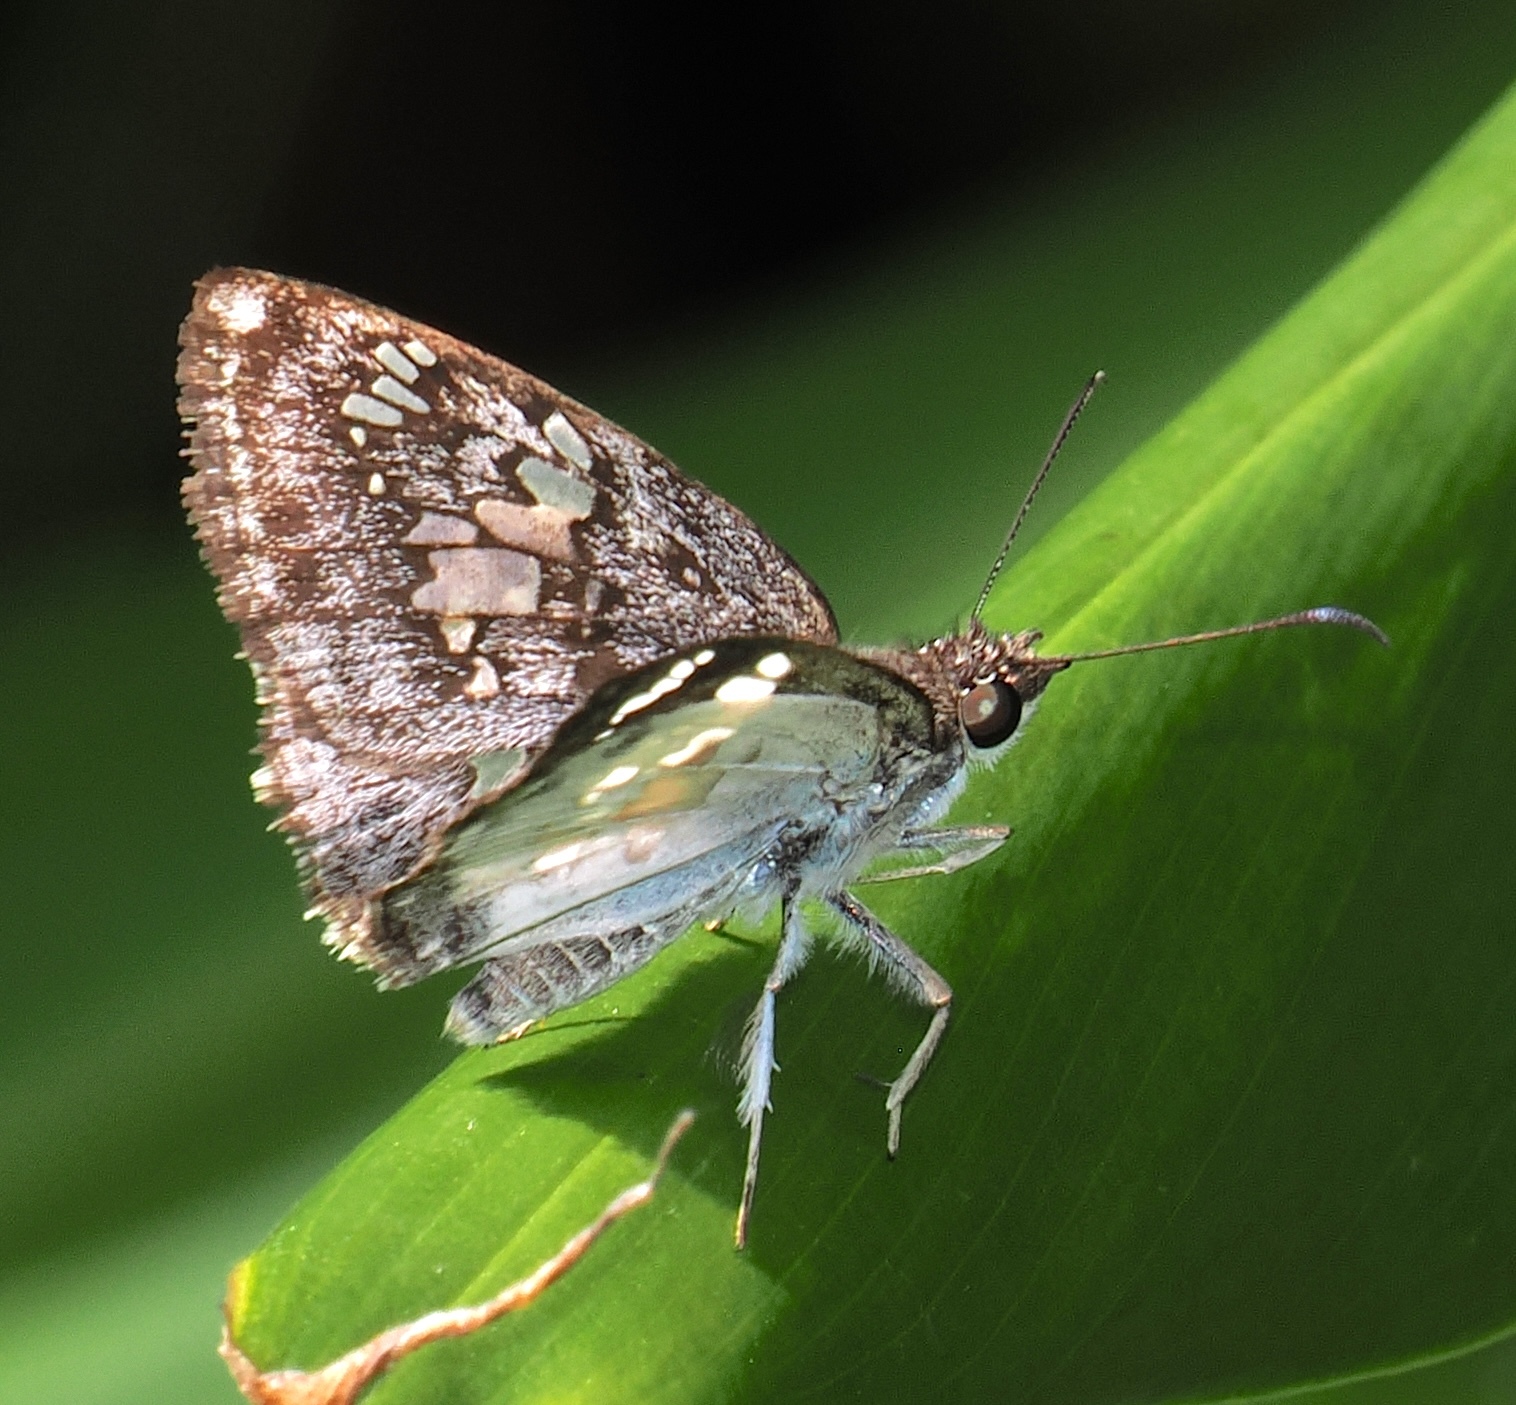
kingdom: Animalia
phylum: Arthropoda
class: Insecta
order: Lepidoptera
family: Hesperiidae
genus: Xenophanes
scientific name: Xenophanes tryxus
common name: Glassy-winged skipper
